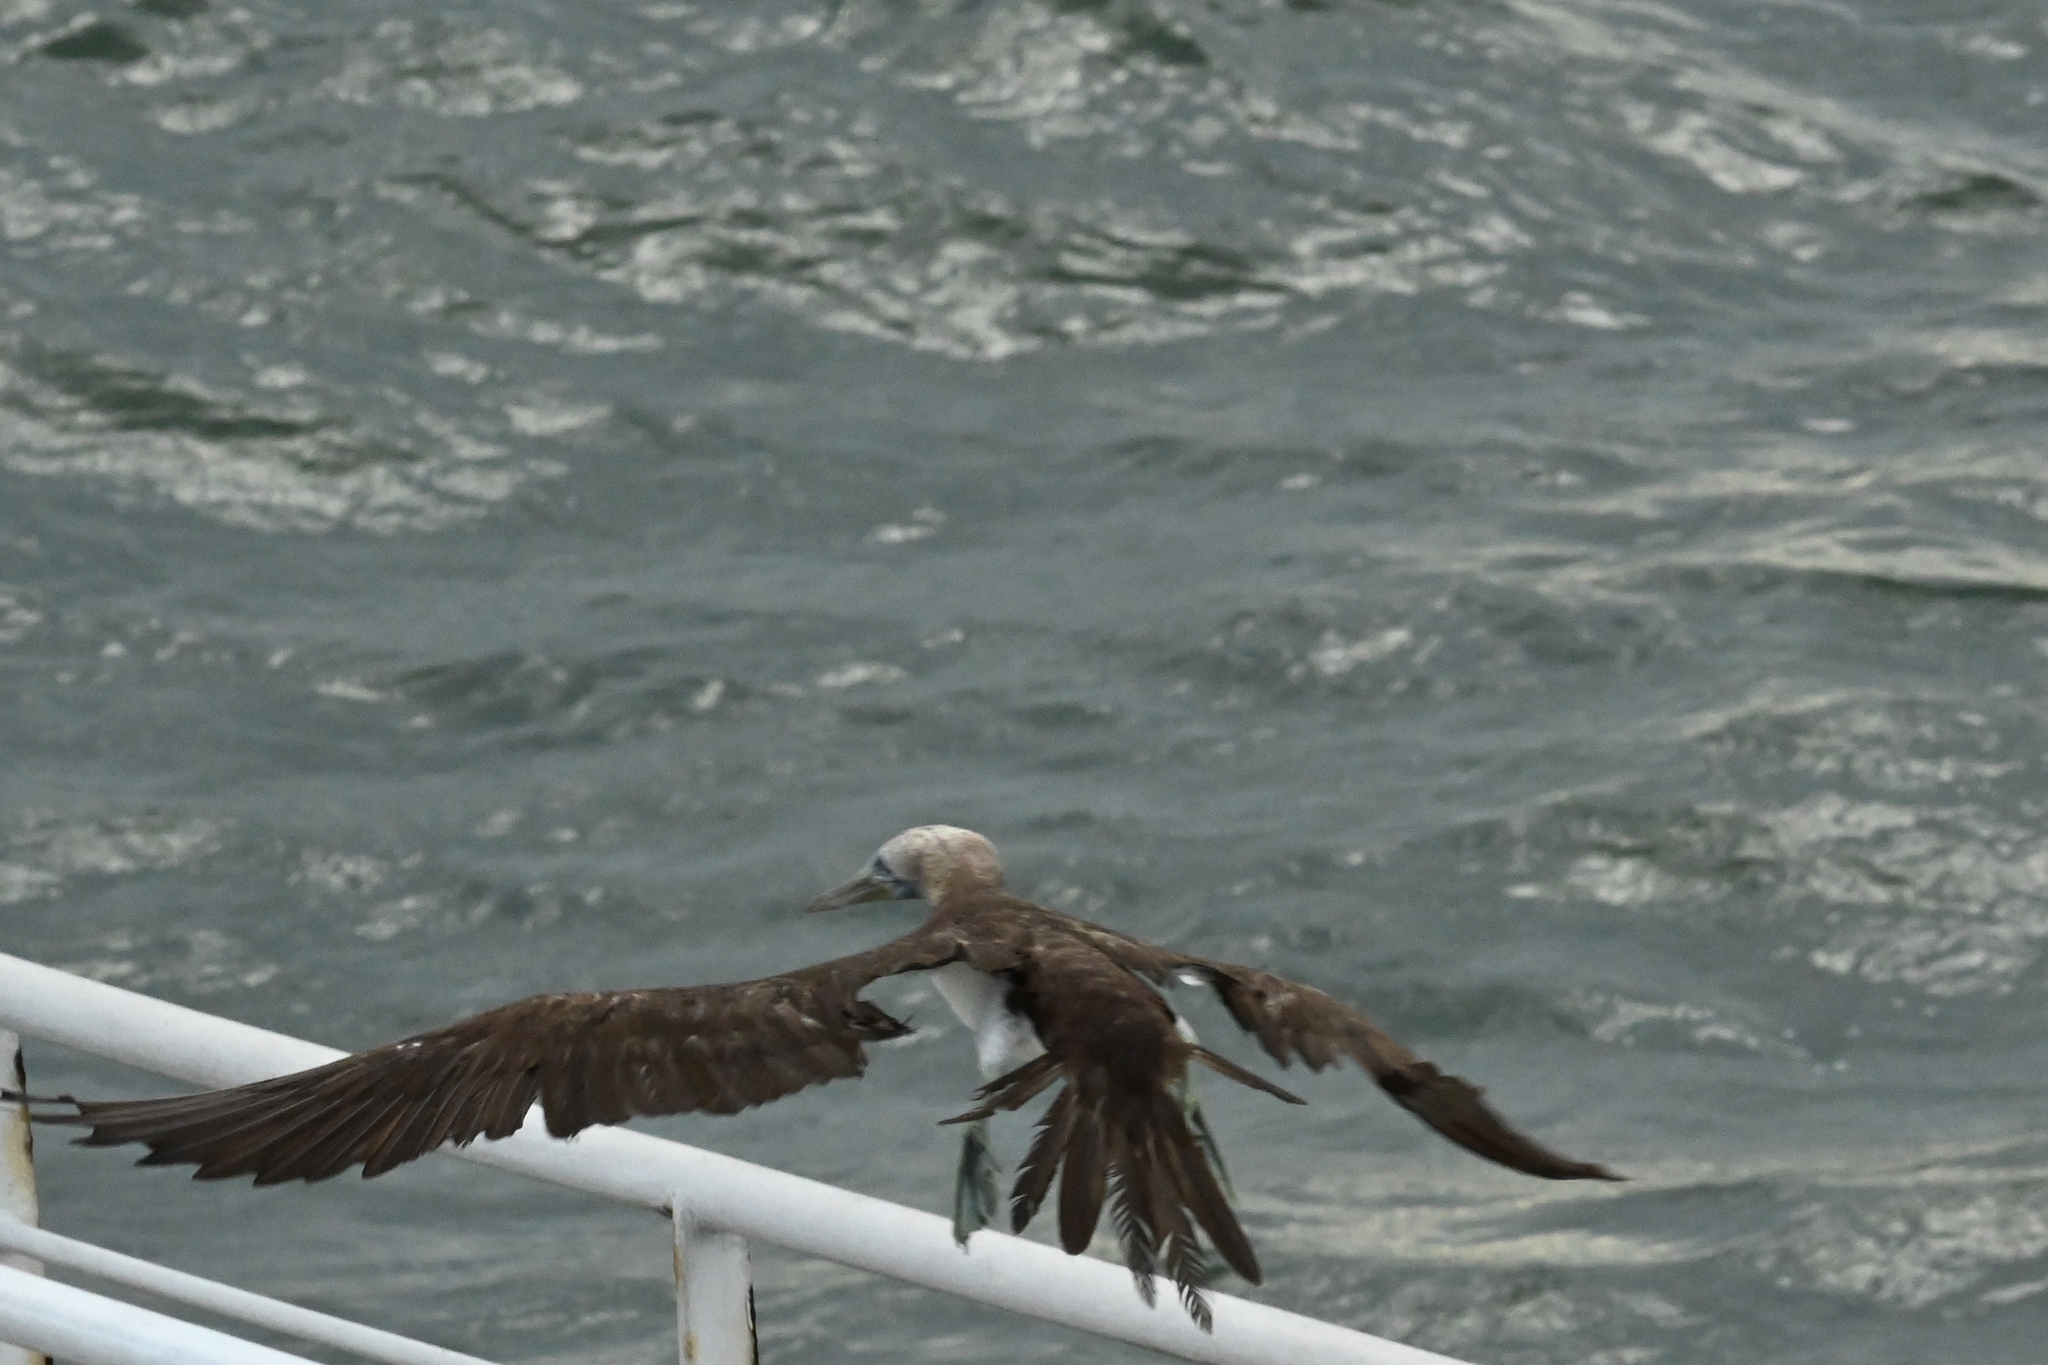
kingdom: Animalia
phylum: Chordata
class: Aves
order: Suliformes
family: Sulidae
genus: Sula
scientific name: Sula leucogaster
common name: Brown booby
